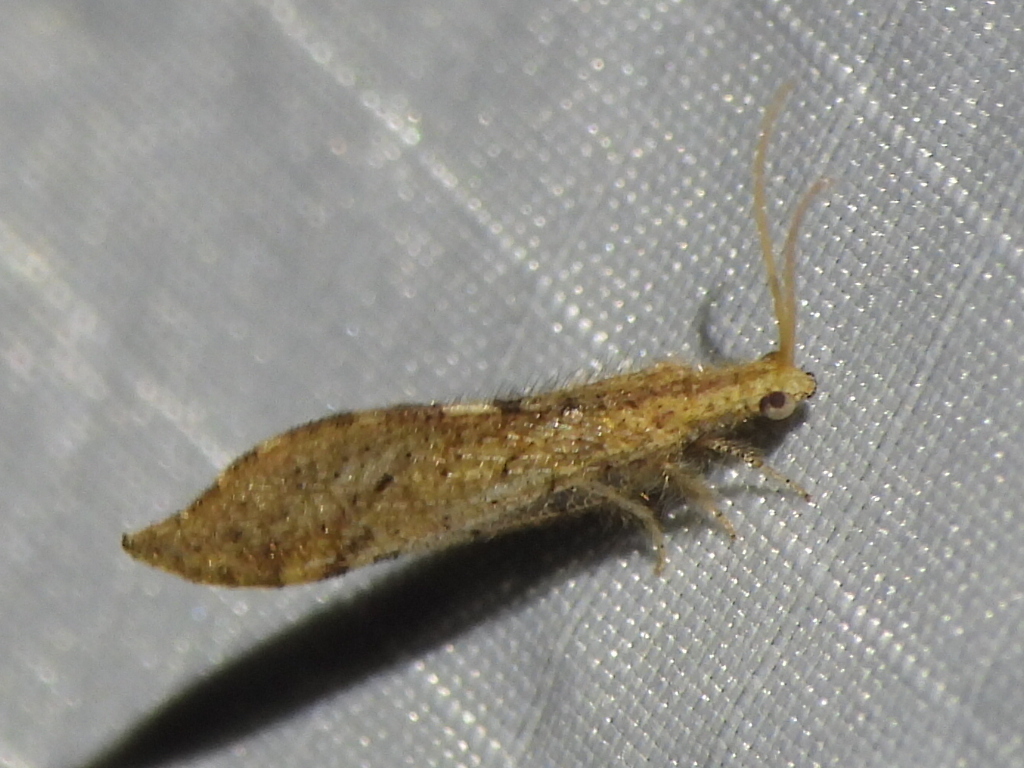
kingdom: Animalia
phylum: Arthropoda
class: Insecta
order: Neuroptera
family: Berothidae
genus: Lomamyia
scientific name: Lomamyia squamosa
